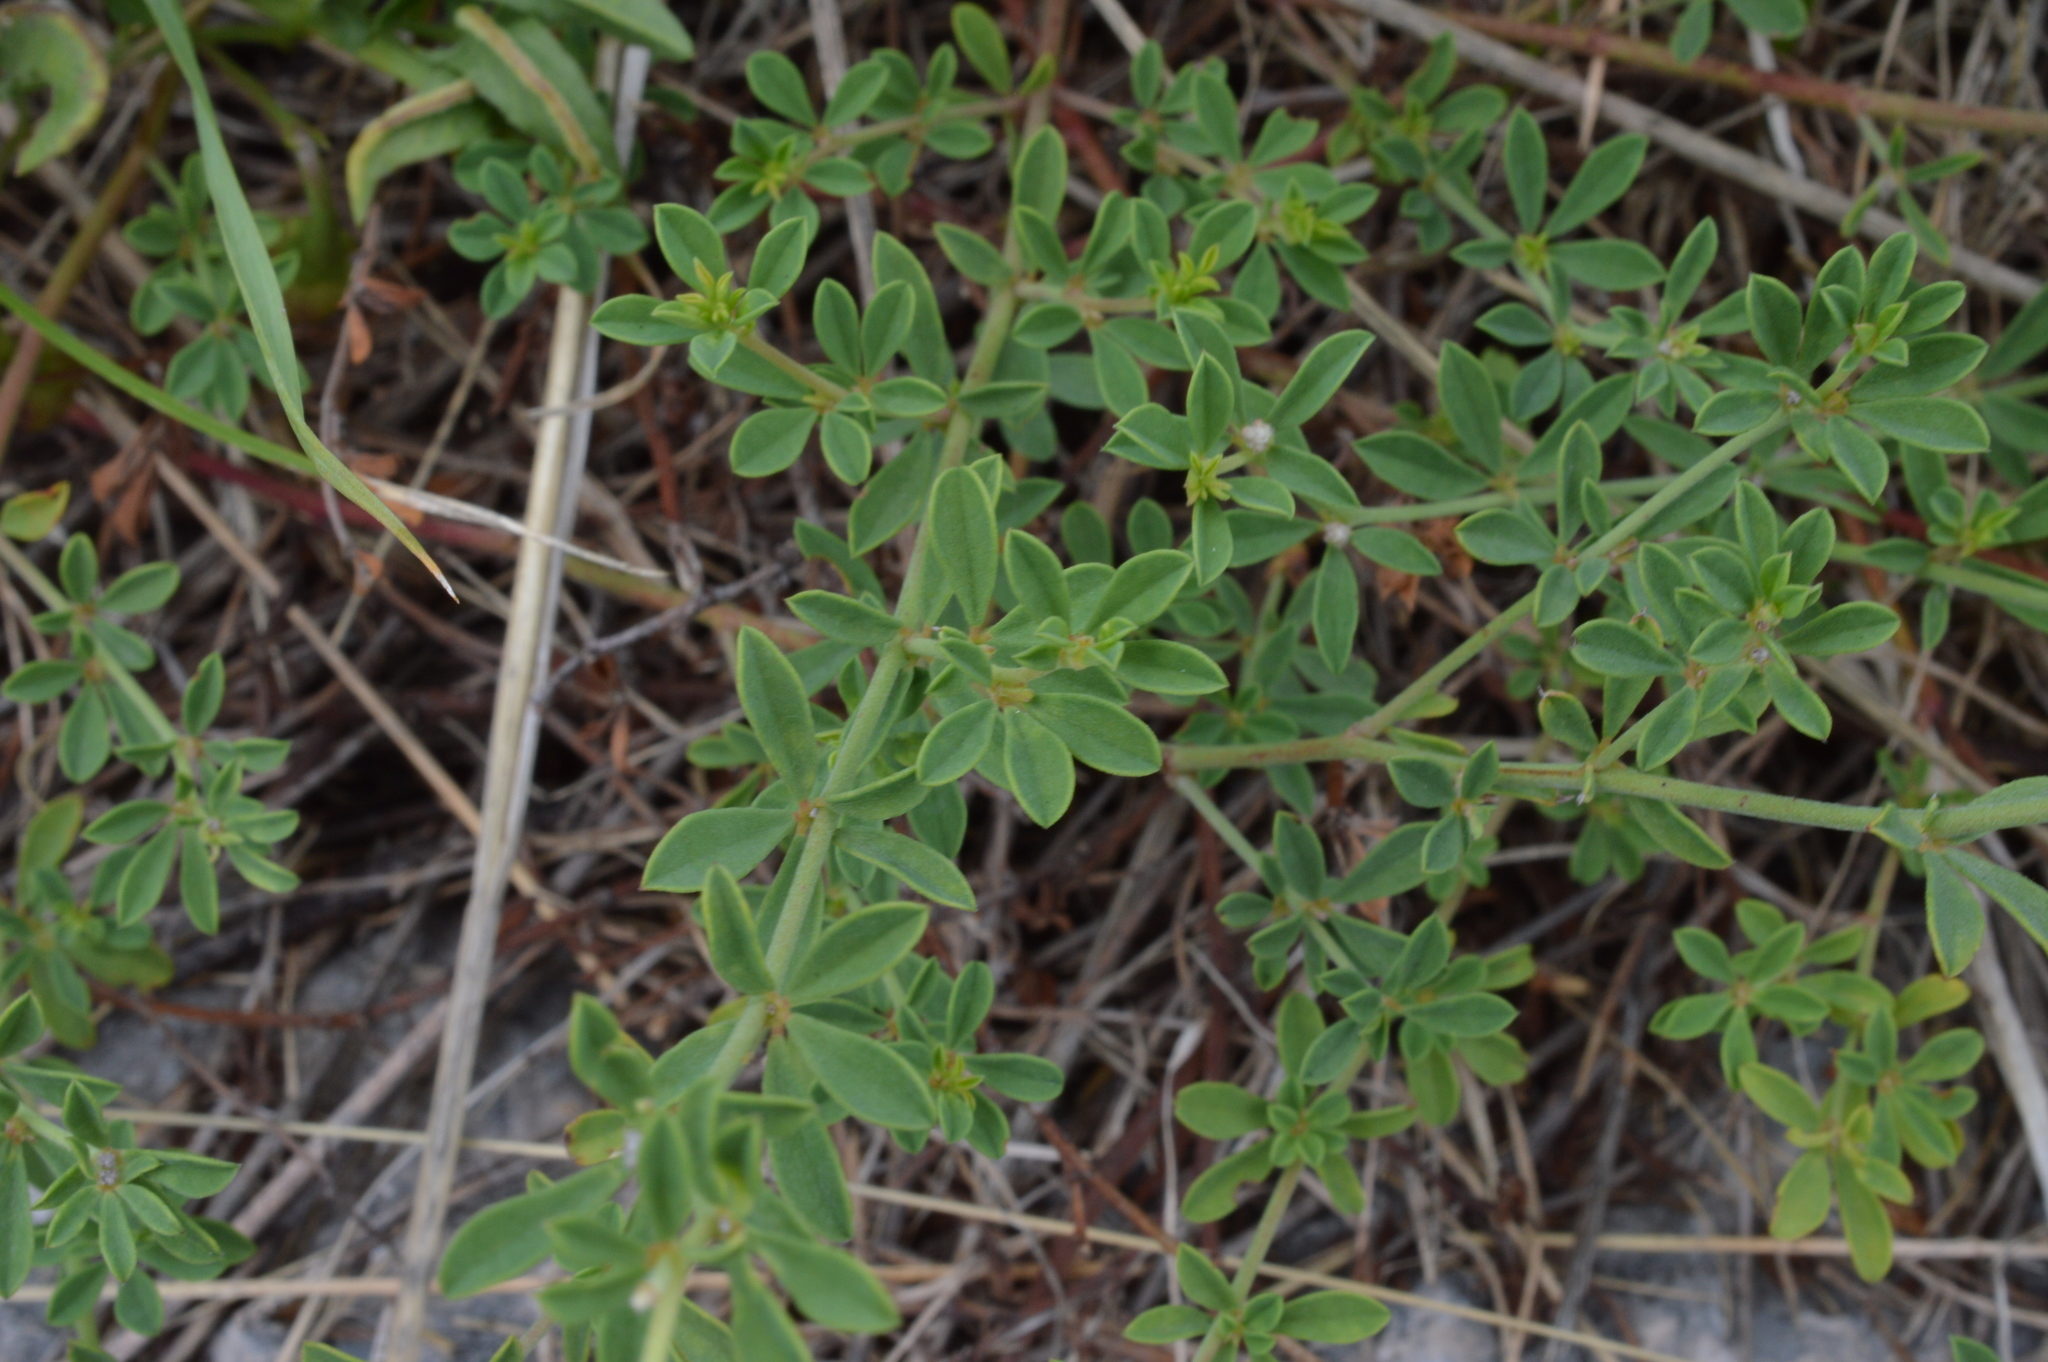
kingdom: Plantae
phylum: Tracheophyta
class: Magnoliopsida
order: Fabales
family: Fabaceae
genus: Lotus
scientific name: Lotus herbaceus
